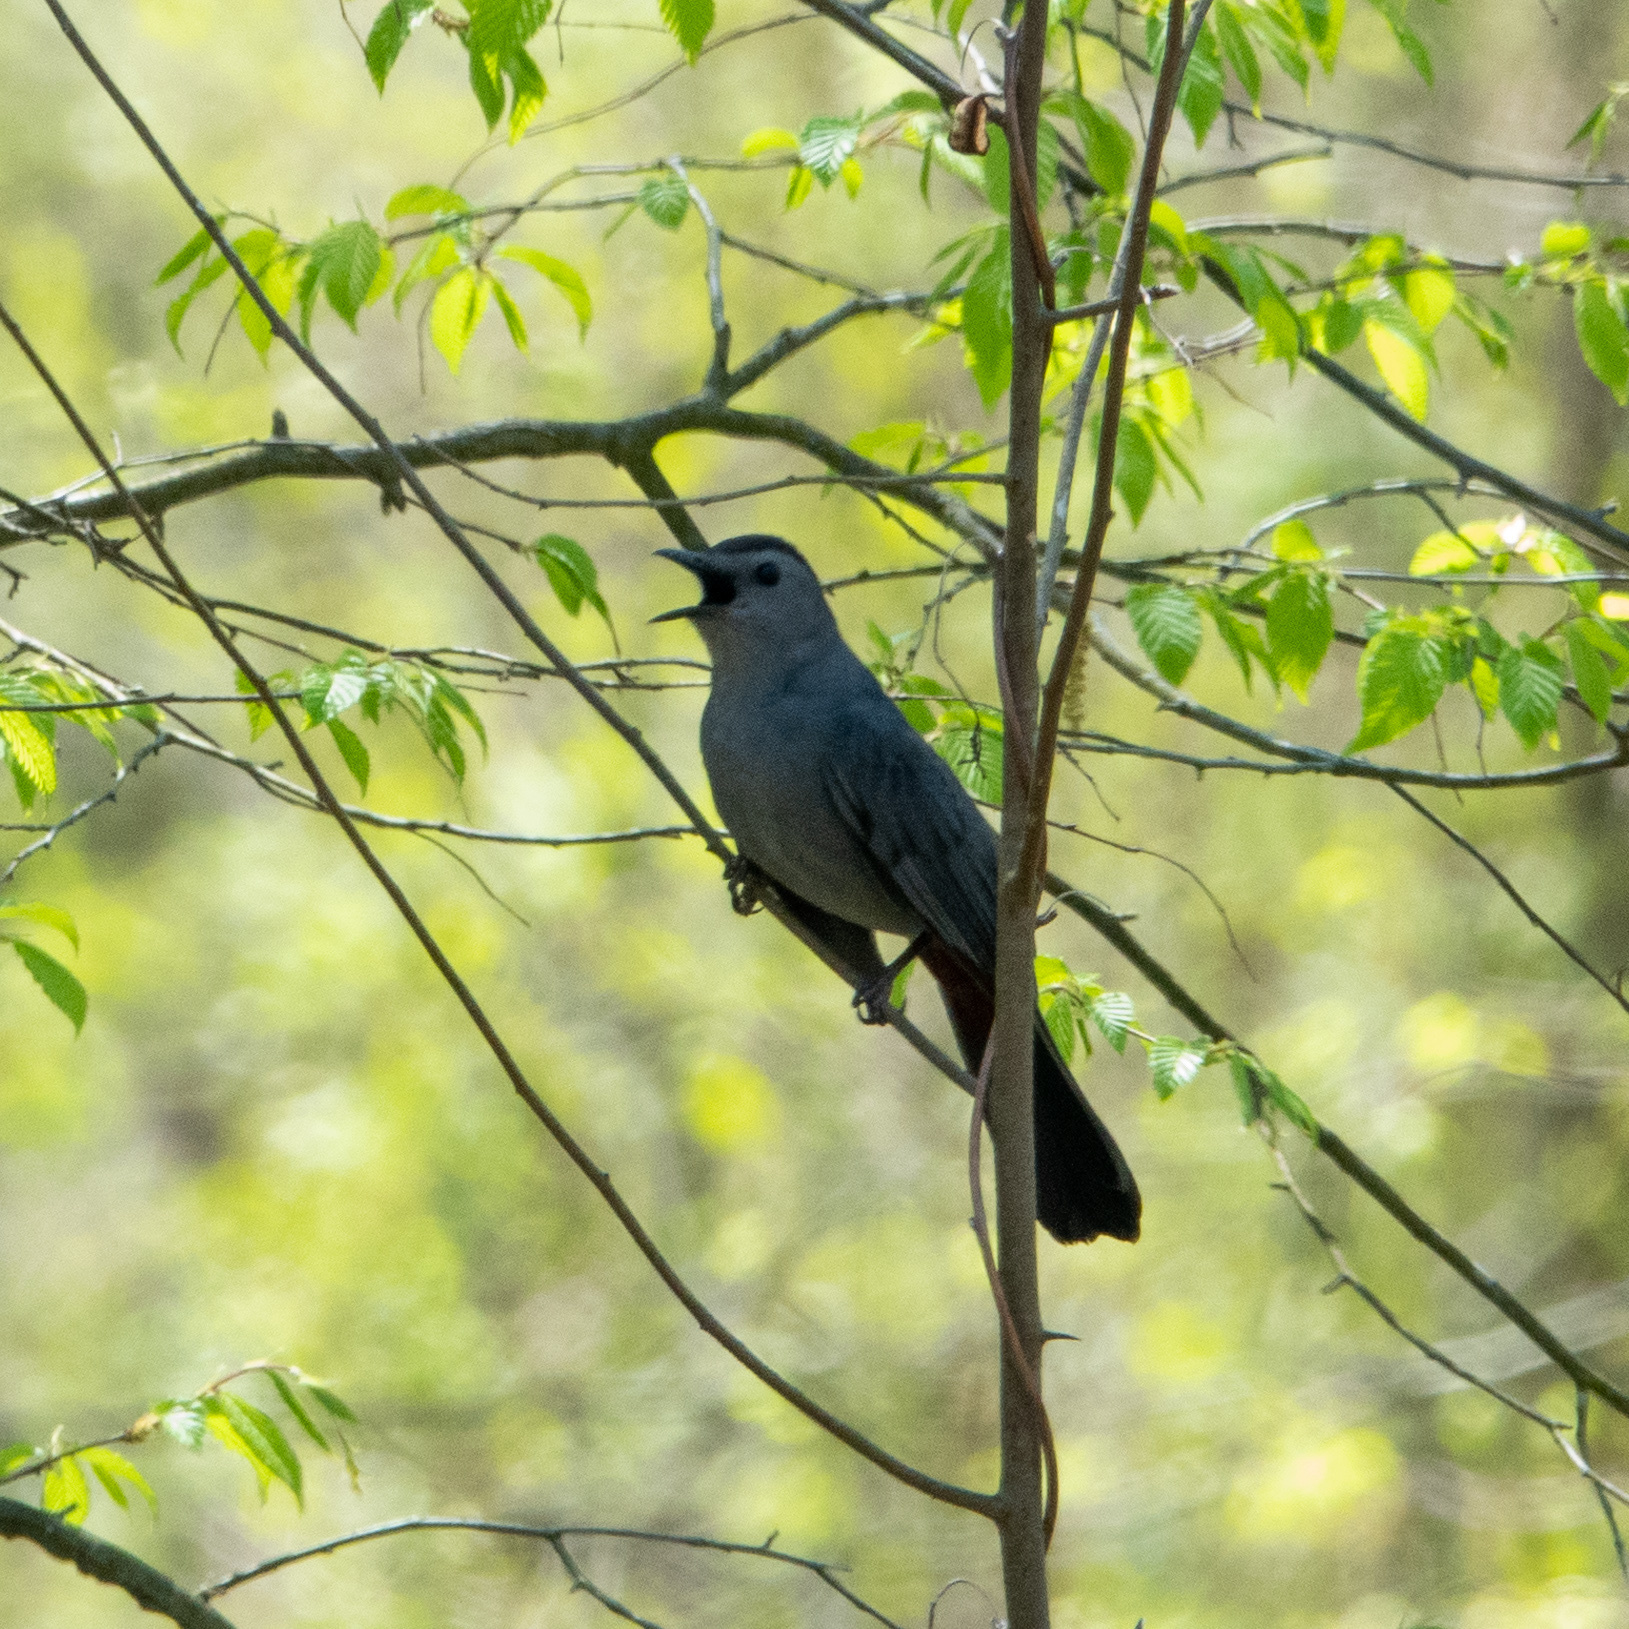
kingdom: Animalia
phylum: Chordata
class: Aves
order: Passeriformes
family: Mimidae
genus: Dumetella
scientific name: Dumetella carolinensis
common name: Gray catbird
